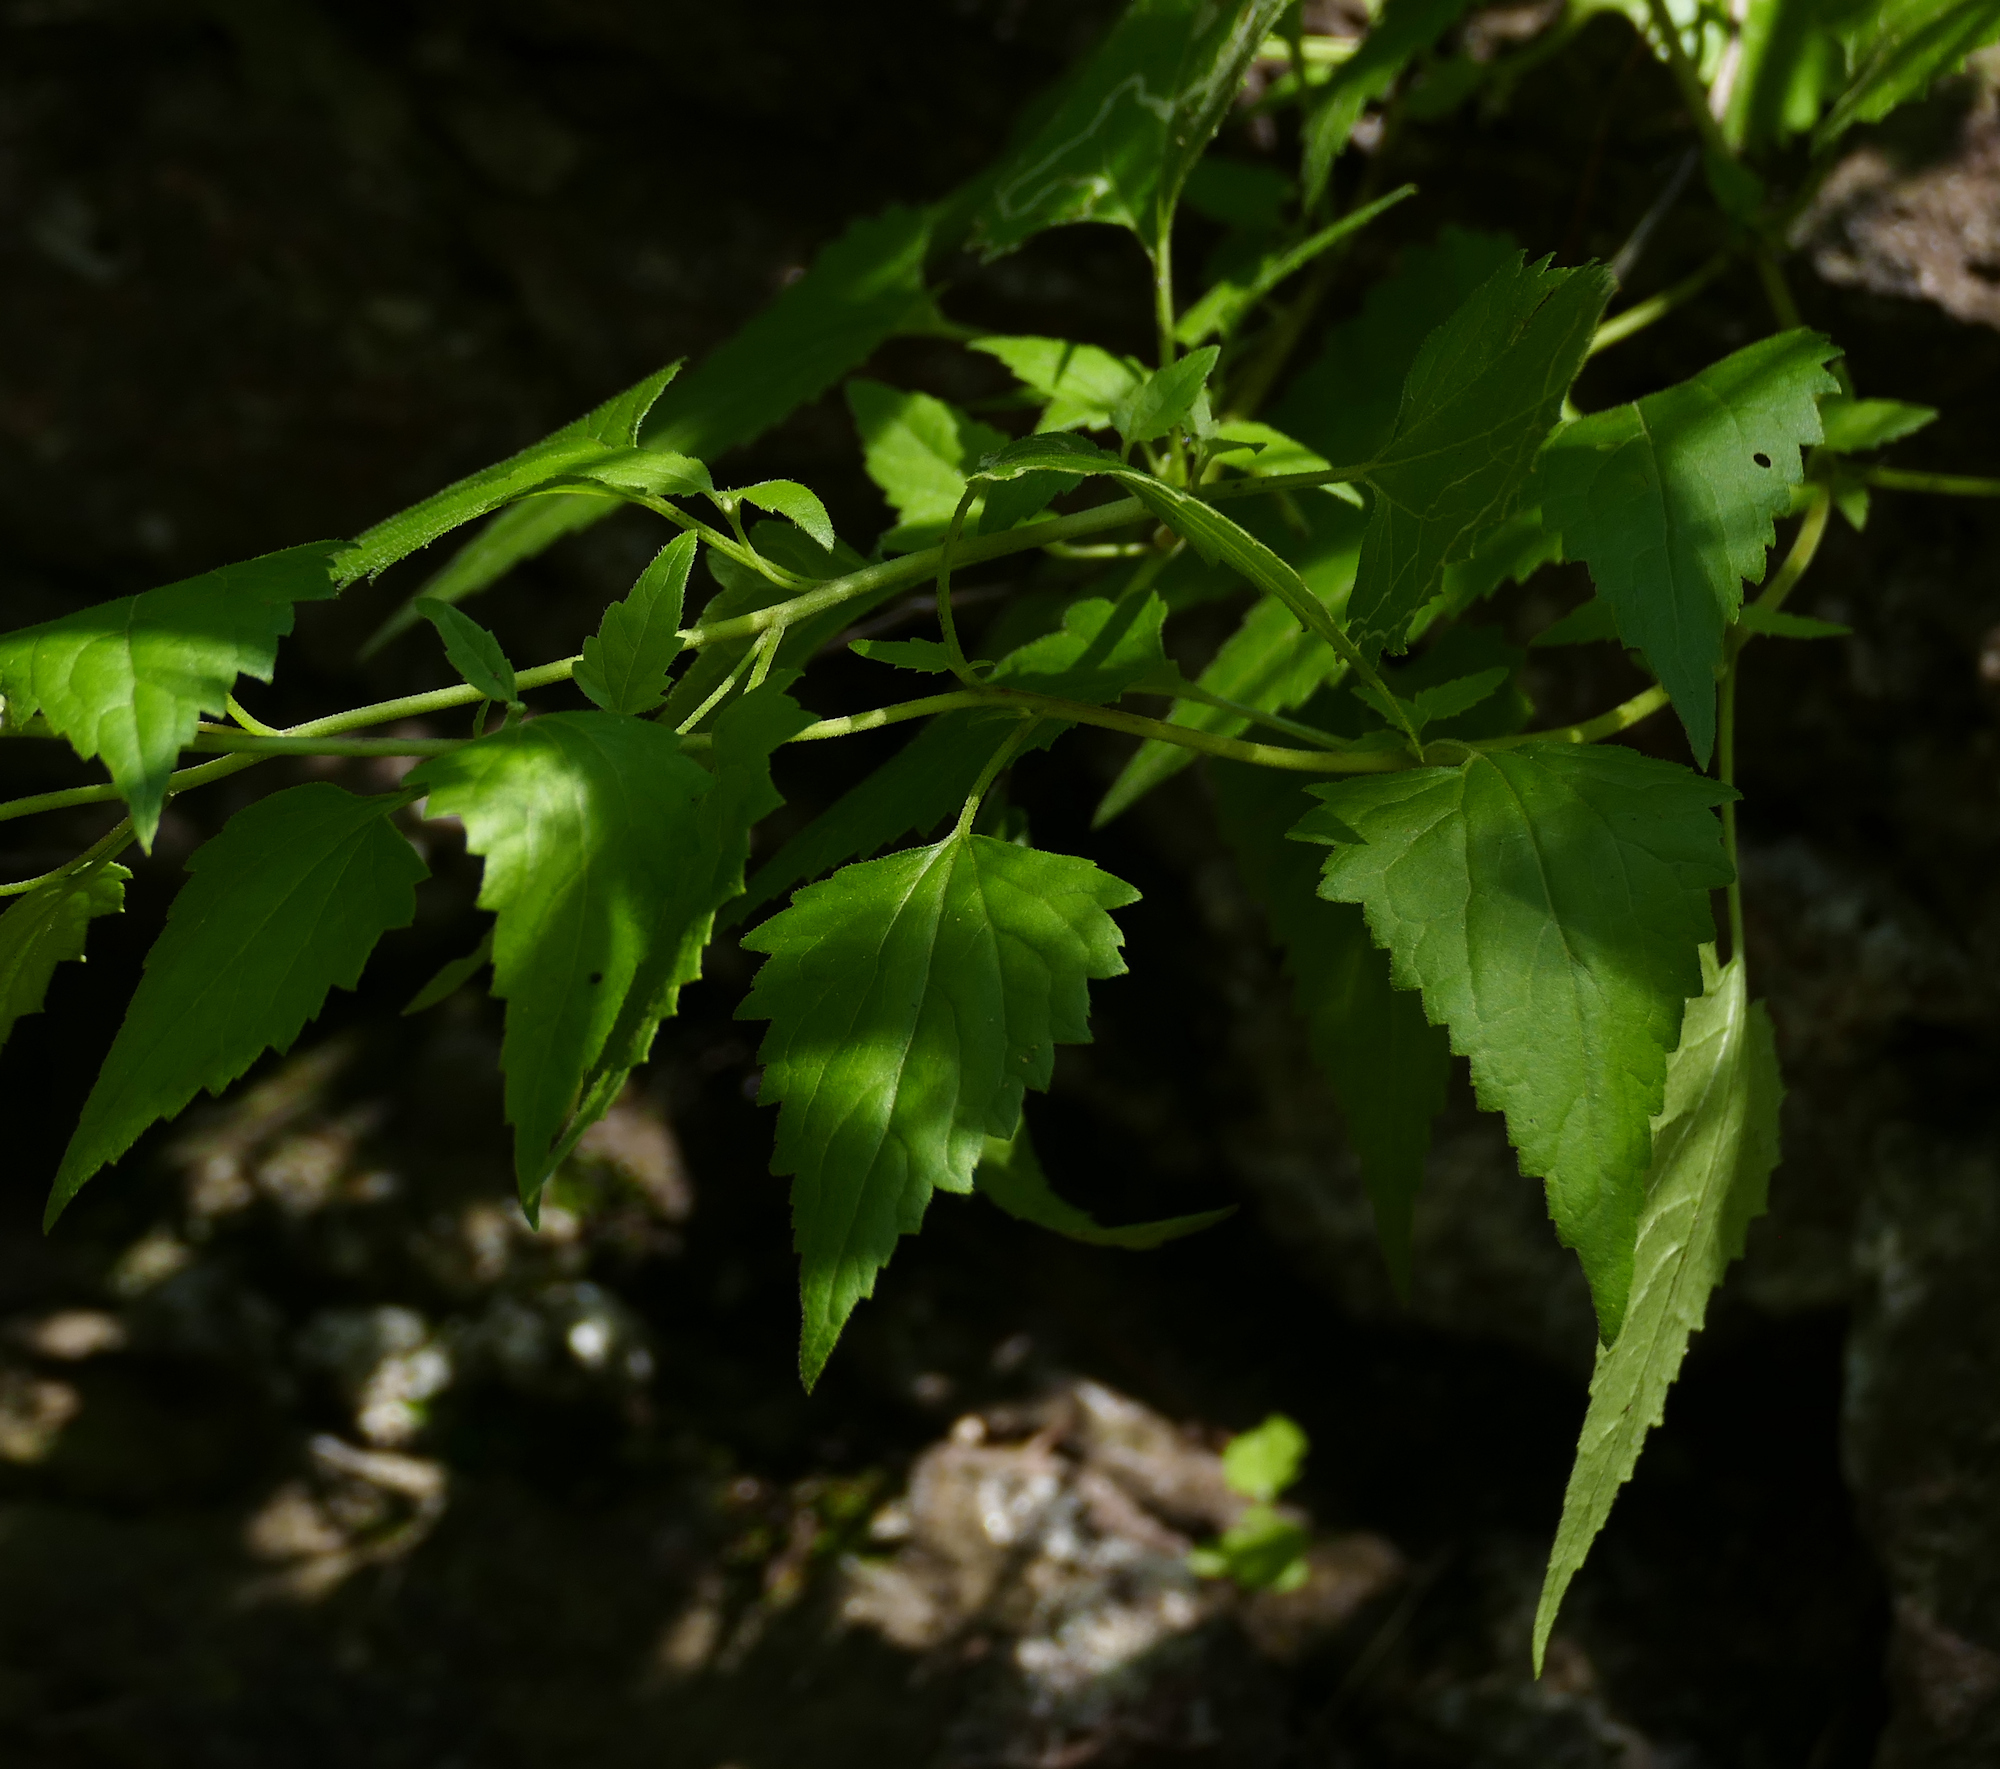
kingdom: Plantae
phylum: Tracheophyta
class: Magnoliopsida
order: Asterales
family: Asteraceae
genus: Brickelliastrum
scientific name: Brickelliastrum fendleri
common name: Fendler's-brickellbush
